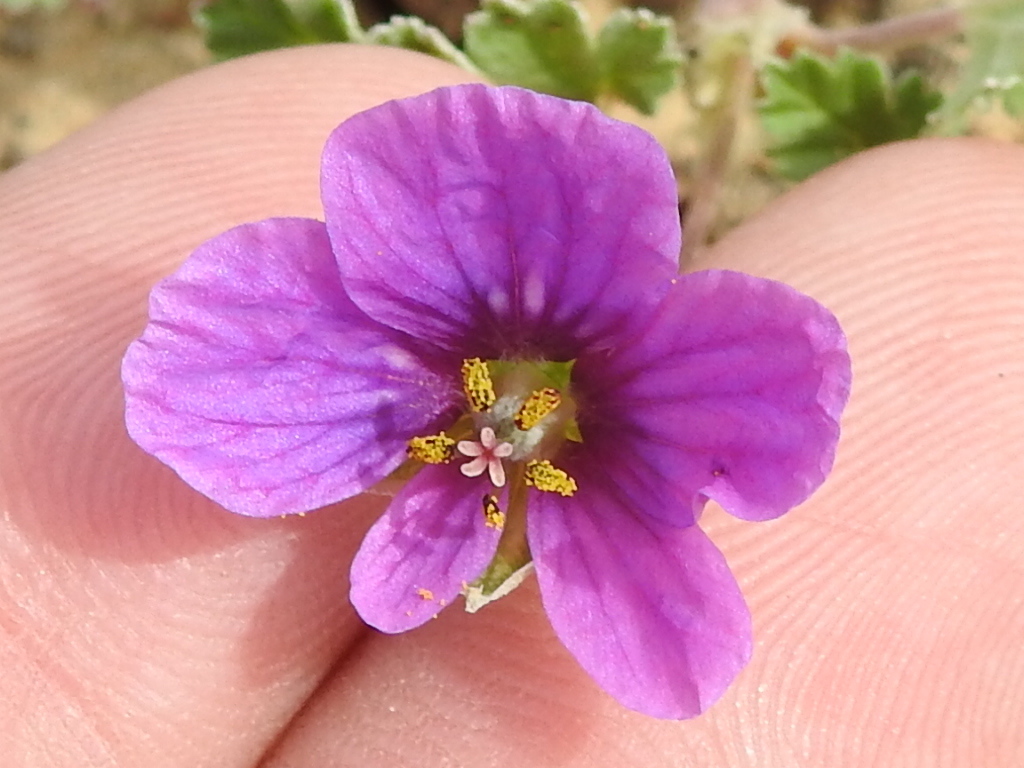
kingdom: Plantae
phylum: Tracheophyta
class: Magnoliopsida
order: Geraniales
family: Geraniaceae
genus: Erodium
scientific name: Erodium texanum
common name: Texas stork's-bill
